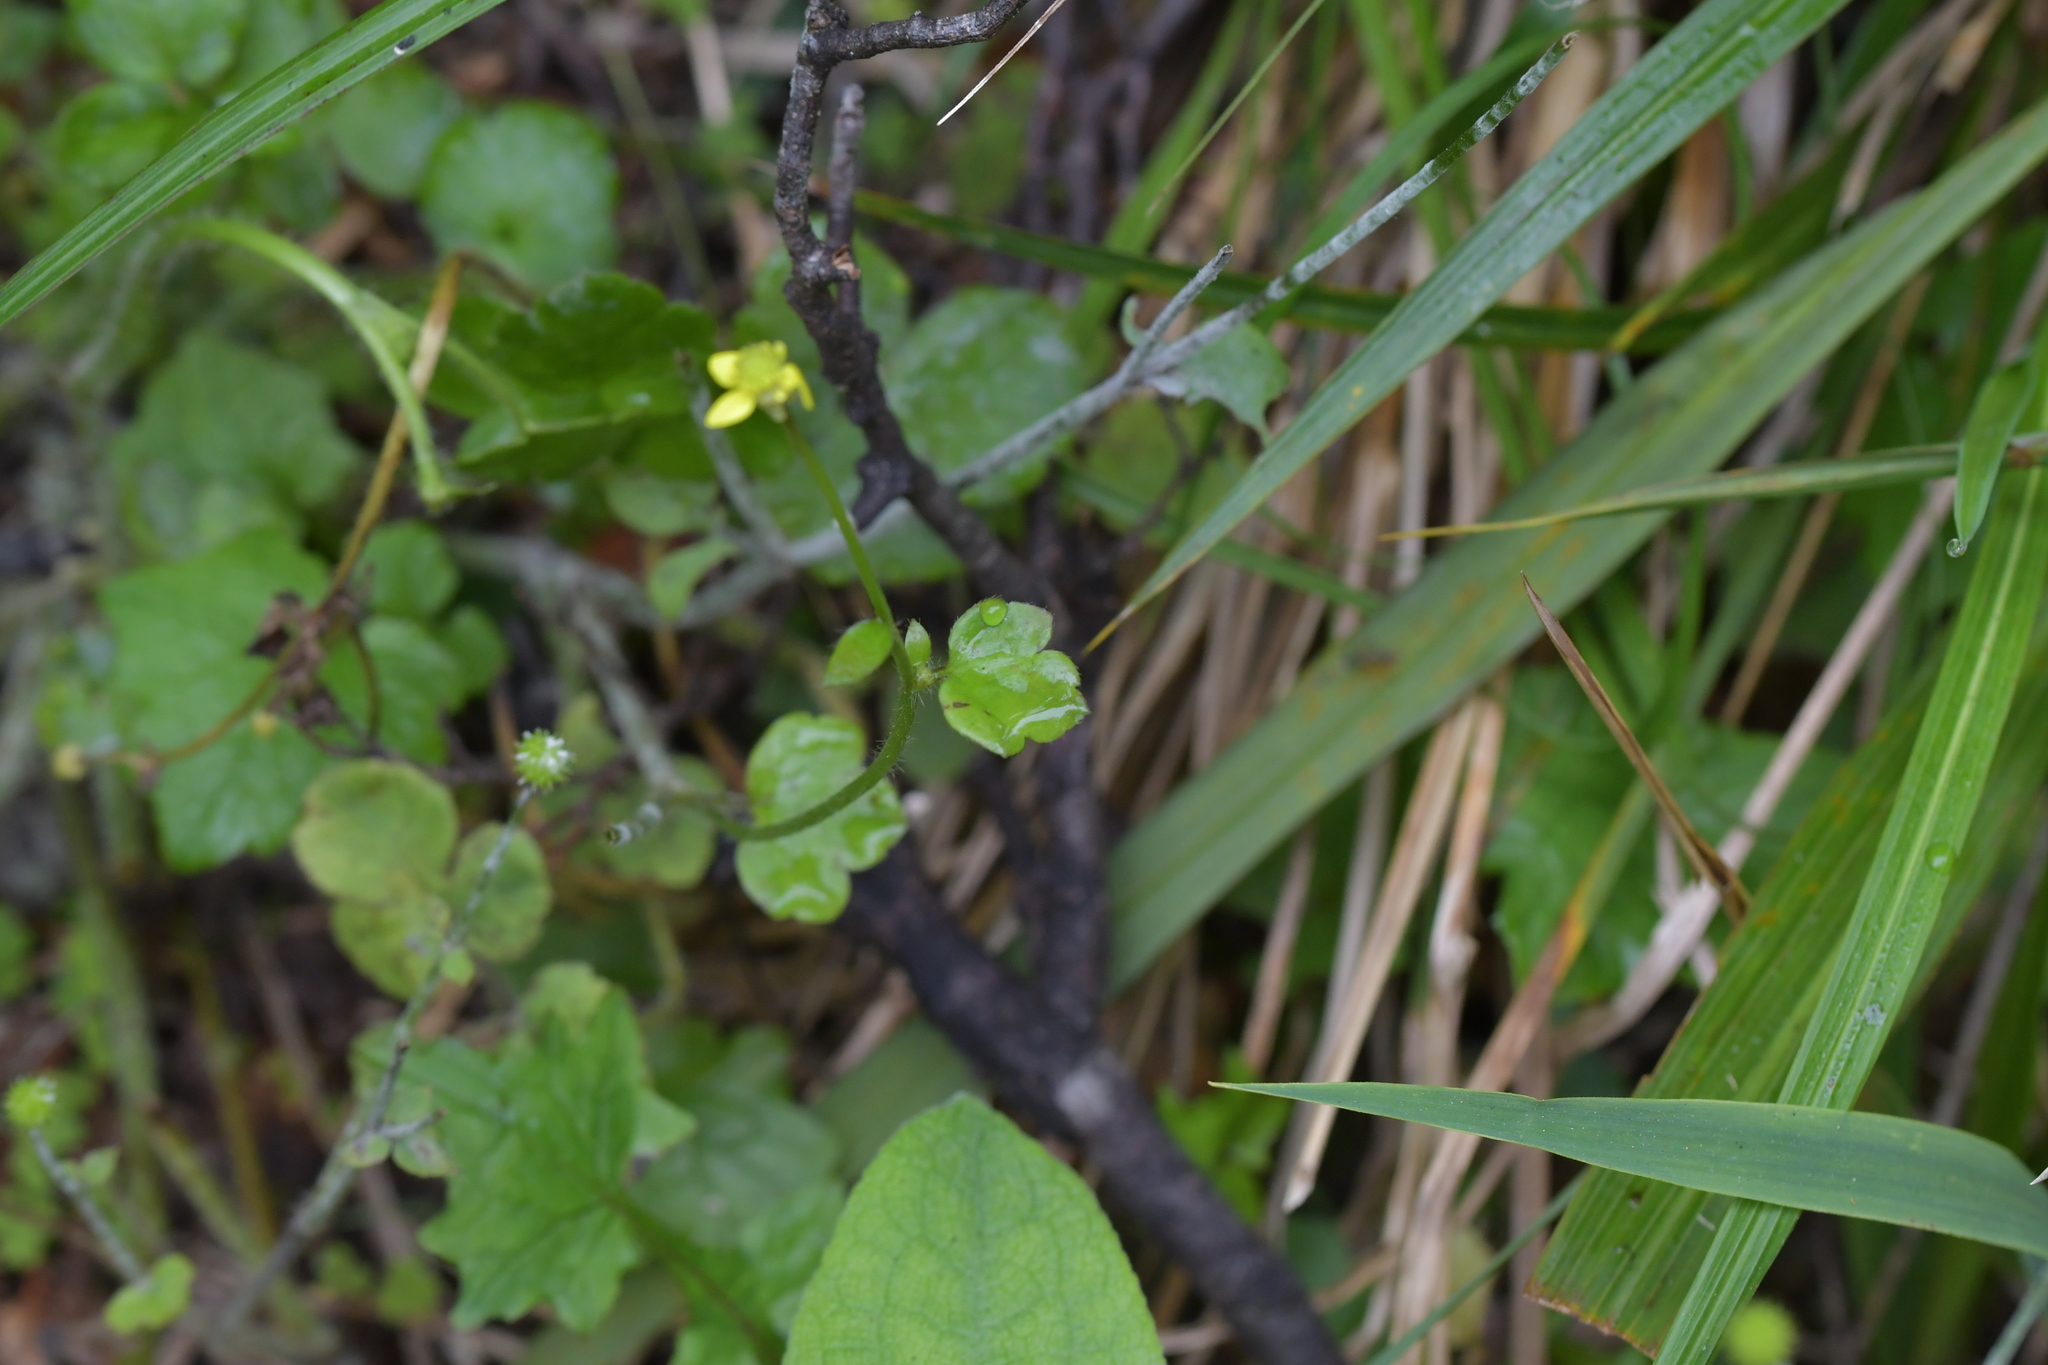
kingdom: Plantae
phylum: Tracheophyta
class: Magnoliopsida
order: Ranunculales
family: Ranunculaceae
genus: Ranunculus
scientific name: Ranunculus reflexus
